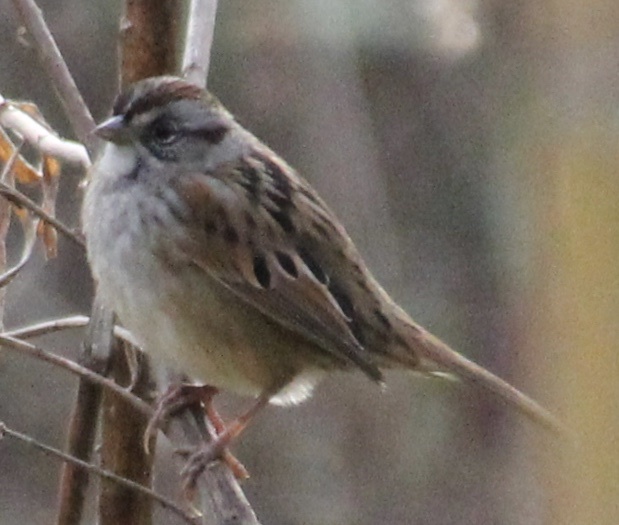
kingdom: Animalia
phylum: Chordata
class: Aves
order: Passeriformes
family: Passerellidae
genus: Melospiza
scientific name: Melospiza georgiana
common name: Swamp sparrow
